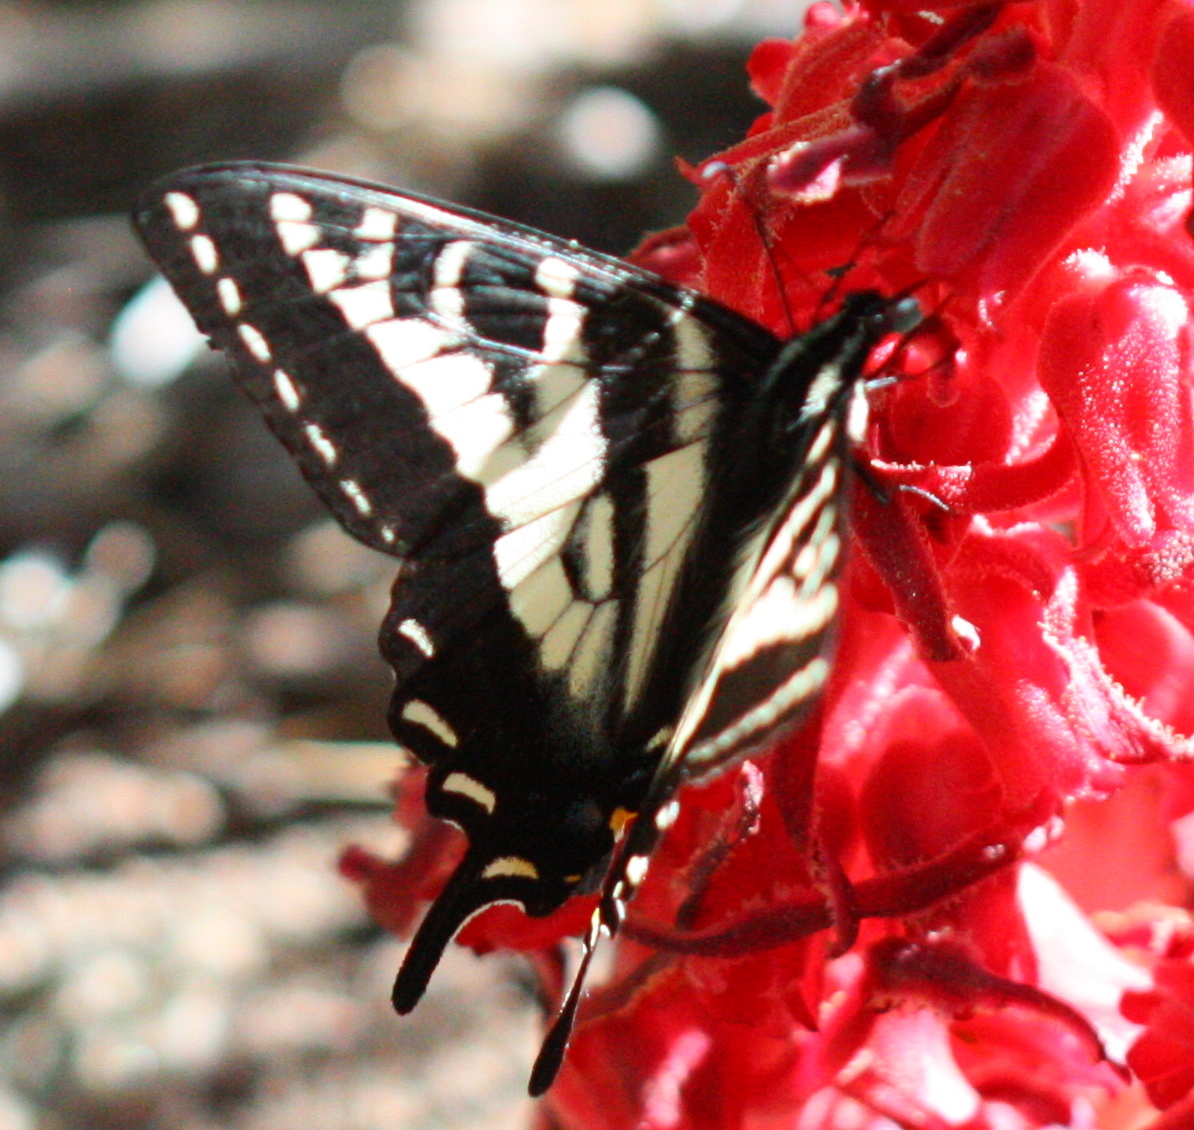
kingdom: Animalia
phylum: Arthropoda
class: Insecta
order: Lepidoptera
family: Papilionidae
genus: Papilio
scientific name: Papilio eurymedon
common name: Pale tiger swallowtail
